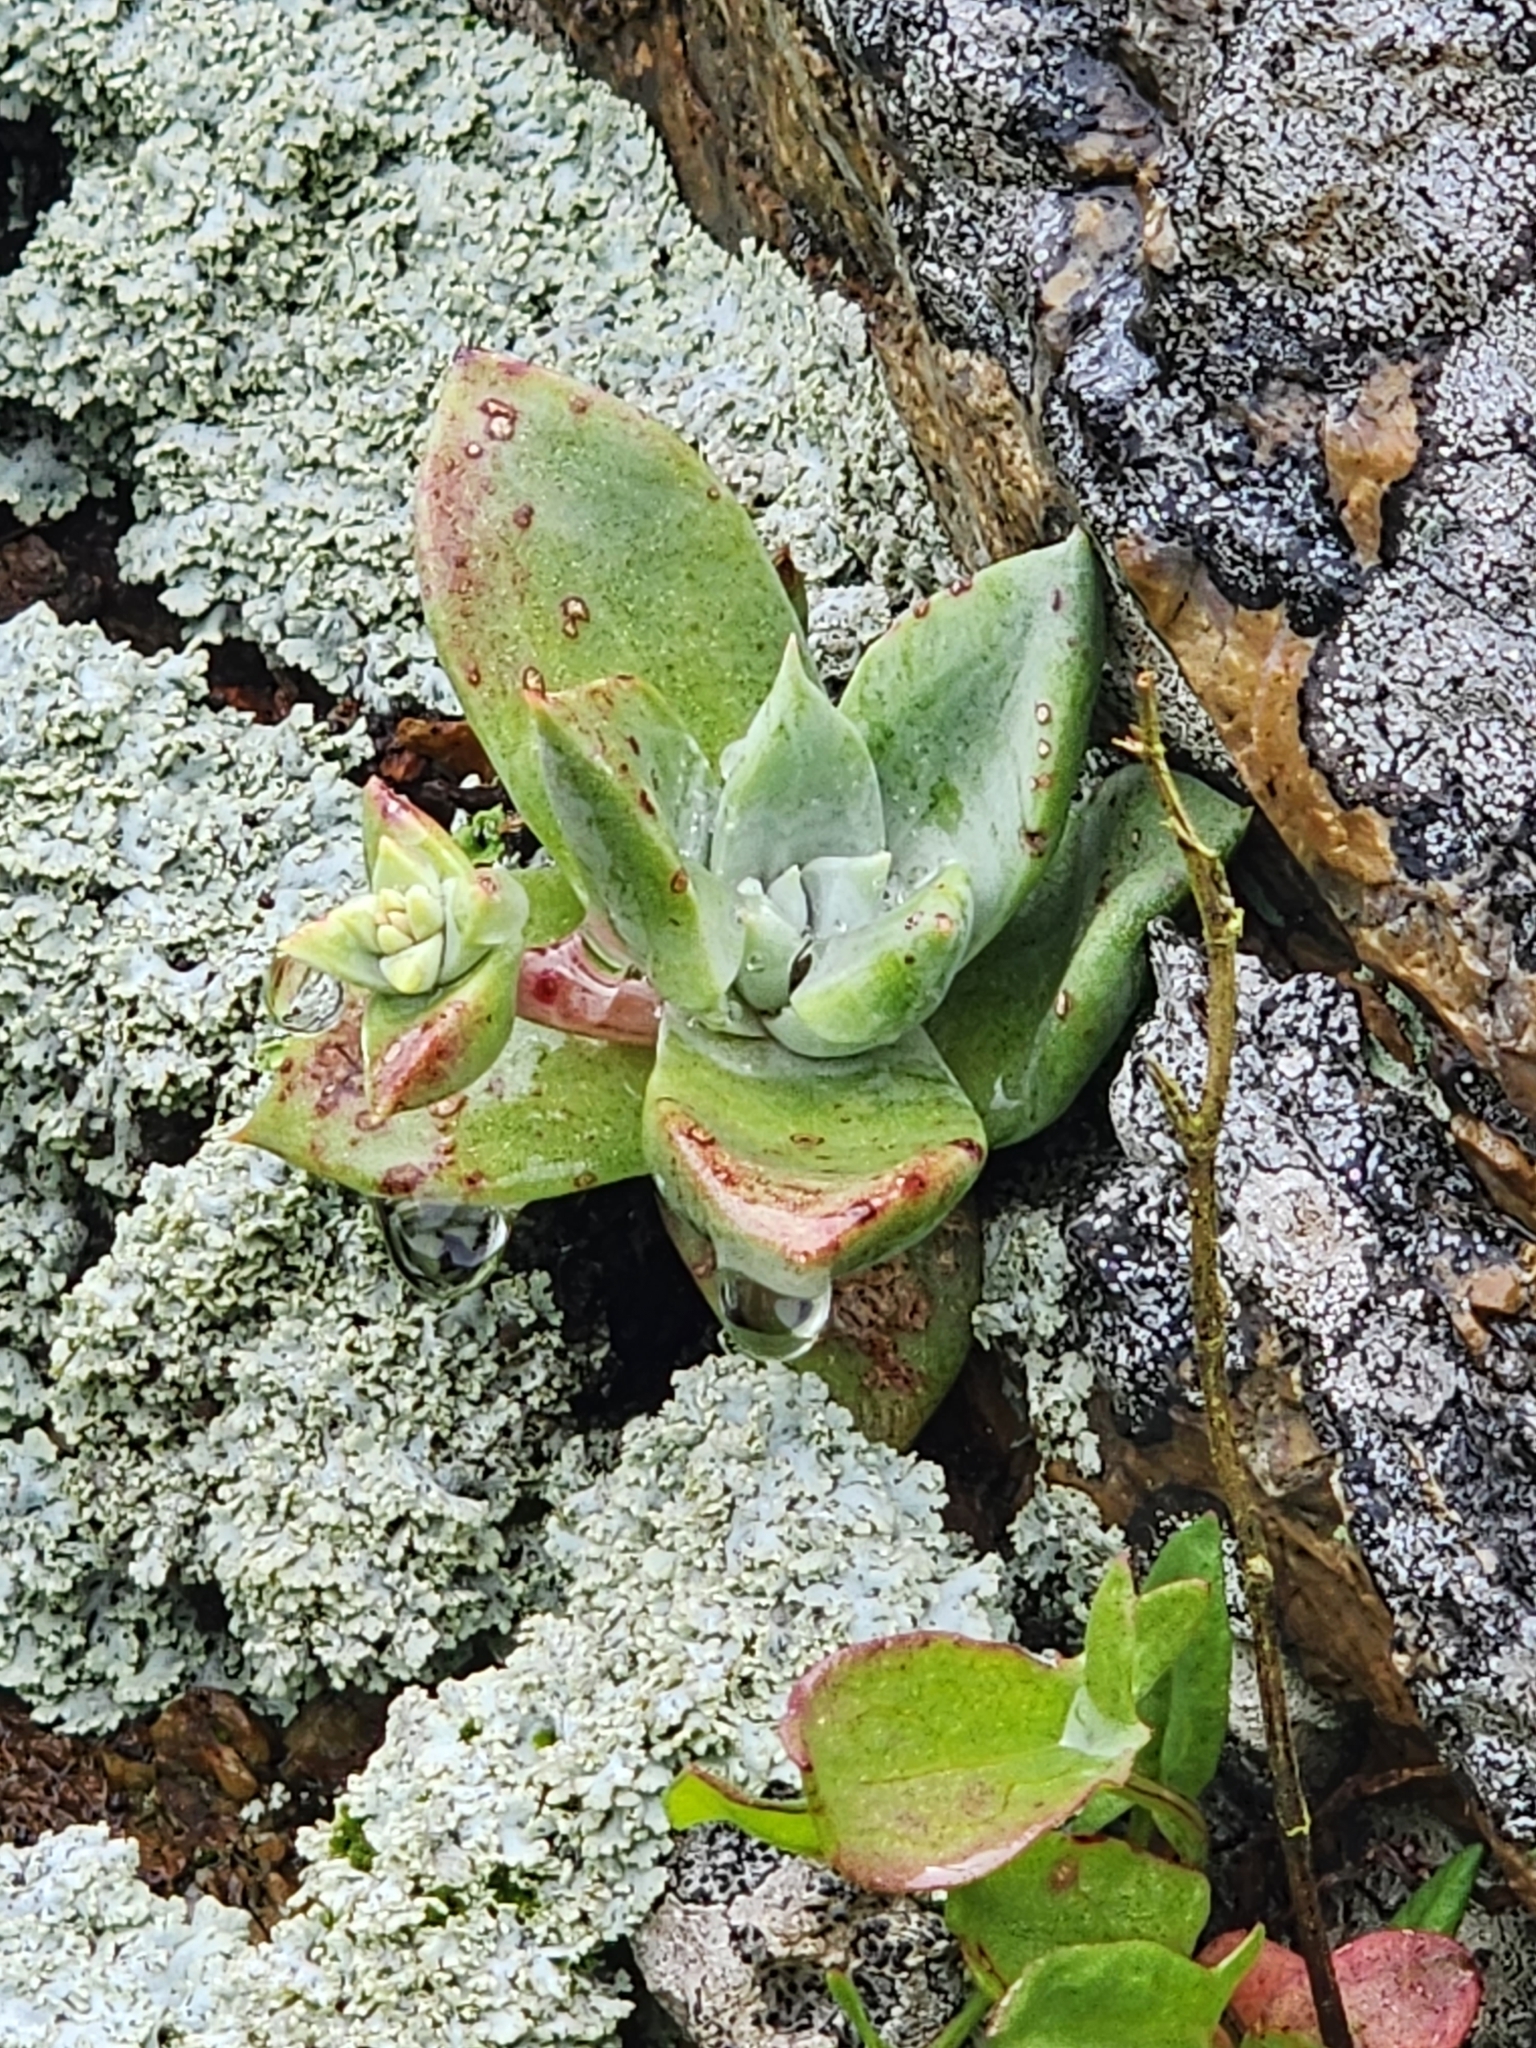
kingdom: Plantae
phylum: Tracheophyta
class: Magnoliopsida
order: Saxifragales
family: Crassulaceae
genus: Dudleya
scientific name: Dudleya farinosa
